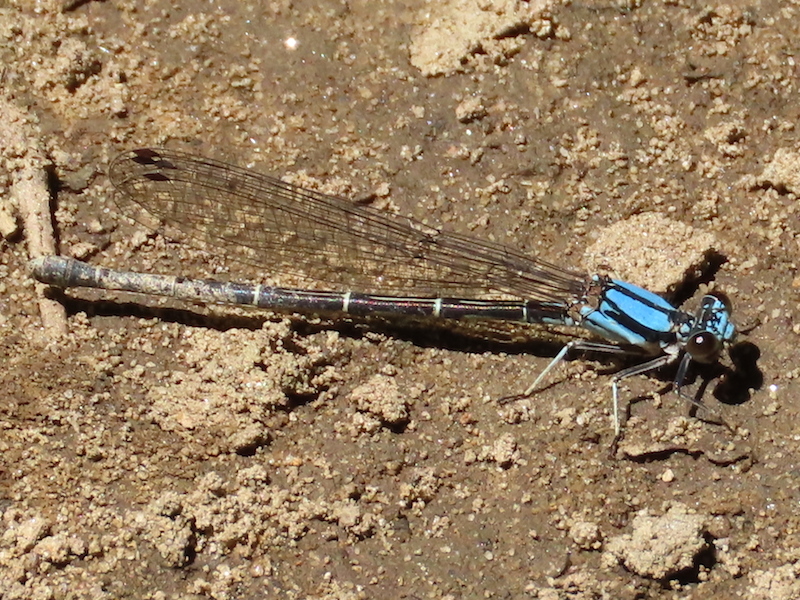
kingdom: Animalia
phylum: Arthropoda
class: Insecta
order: Odonata
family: Coenagrionidae
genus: Argia
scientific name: Argia tibialis
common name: Blue-tipped dancer
